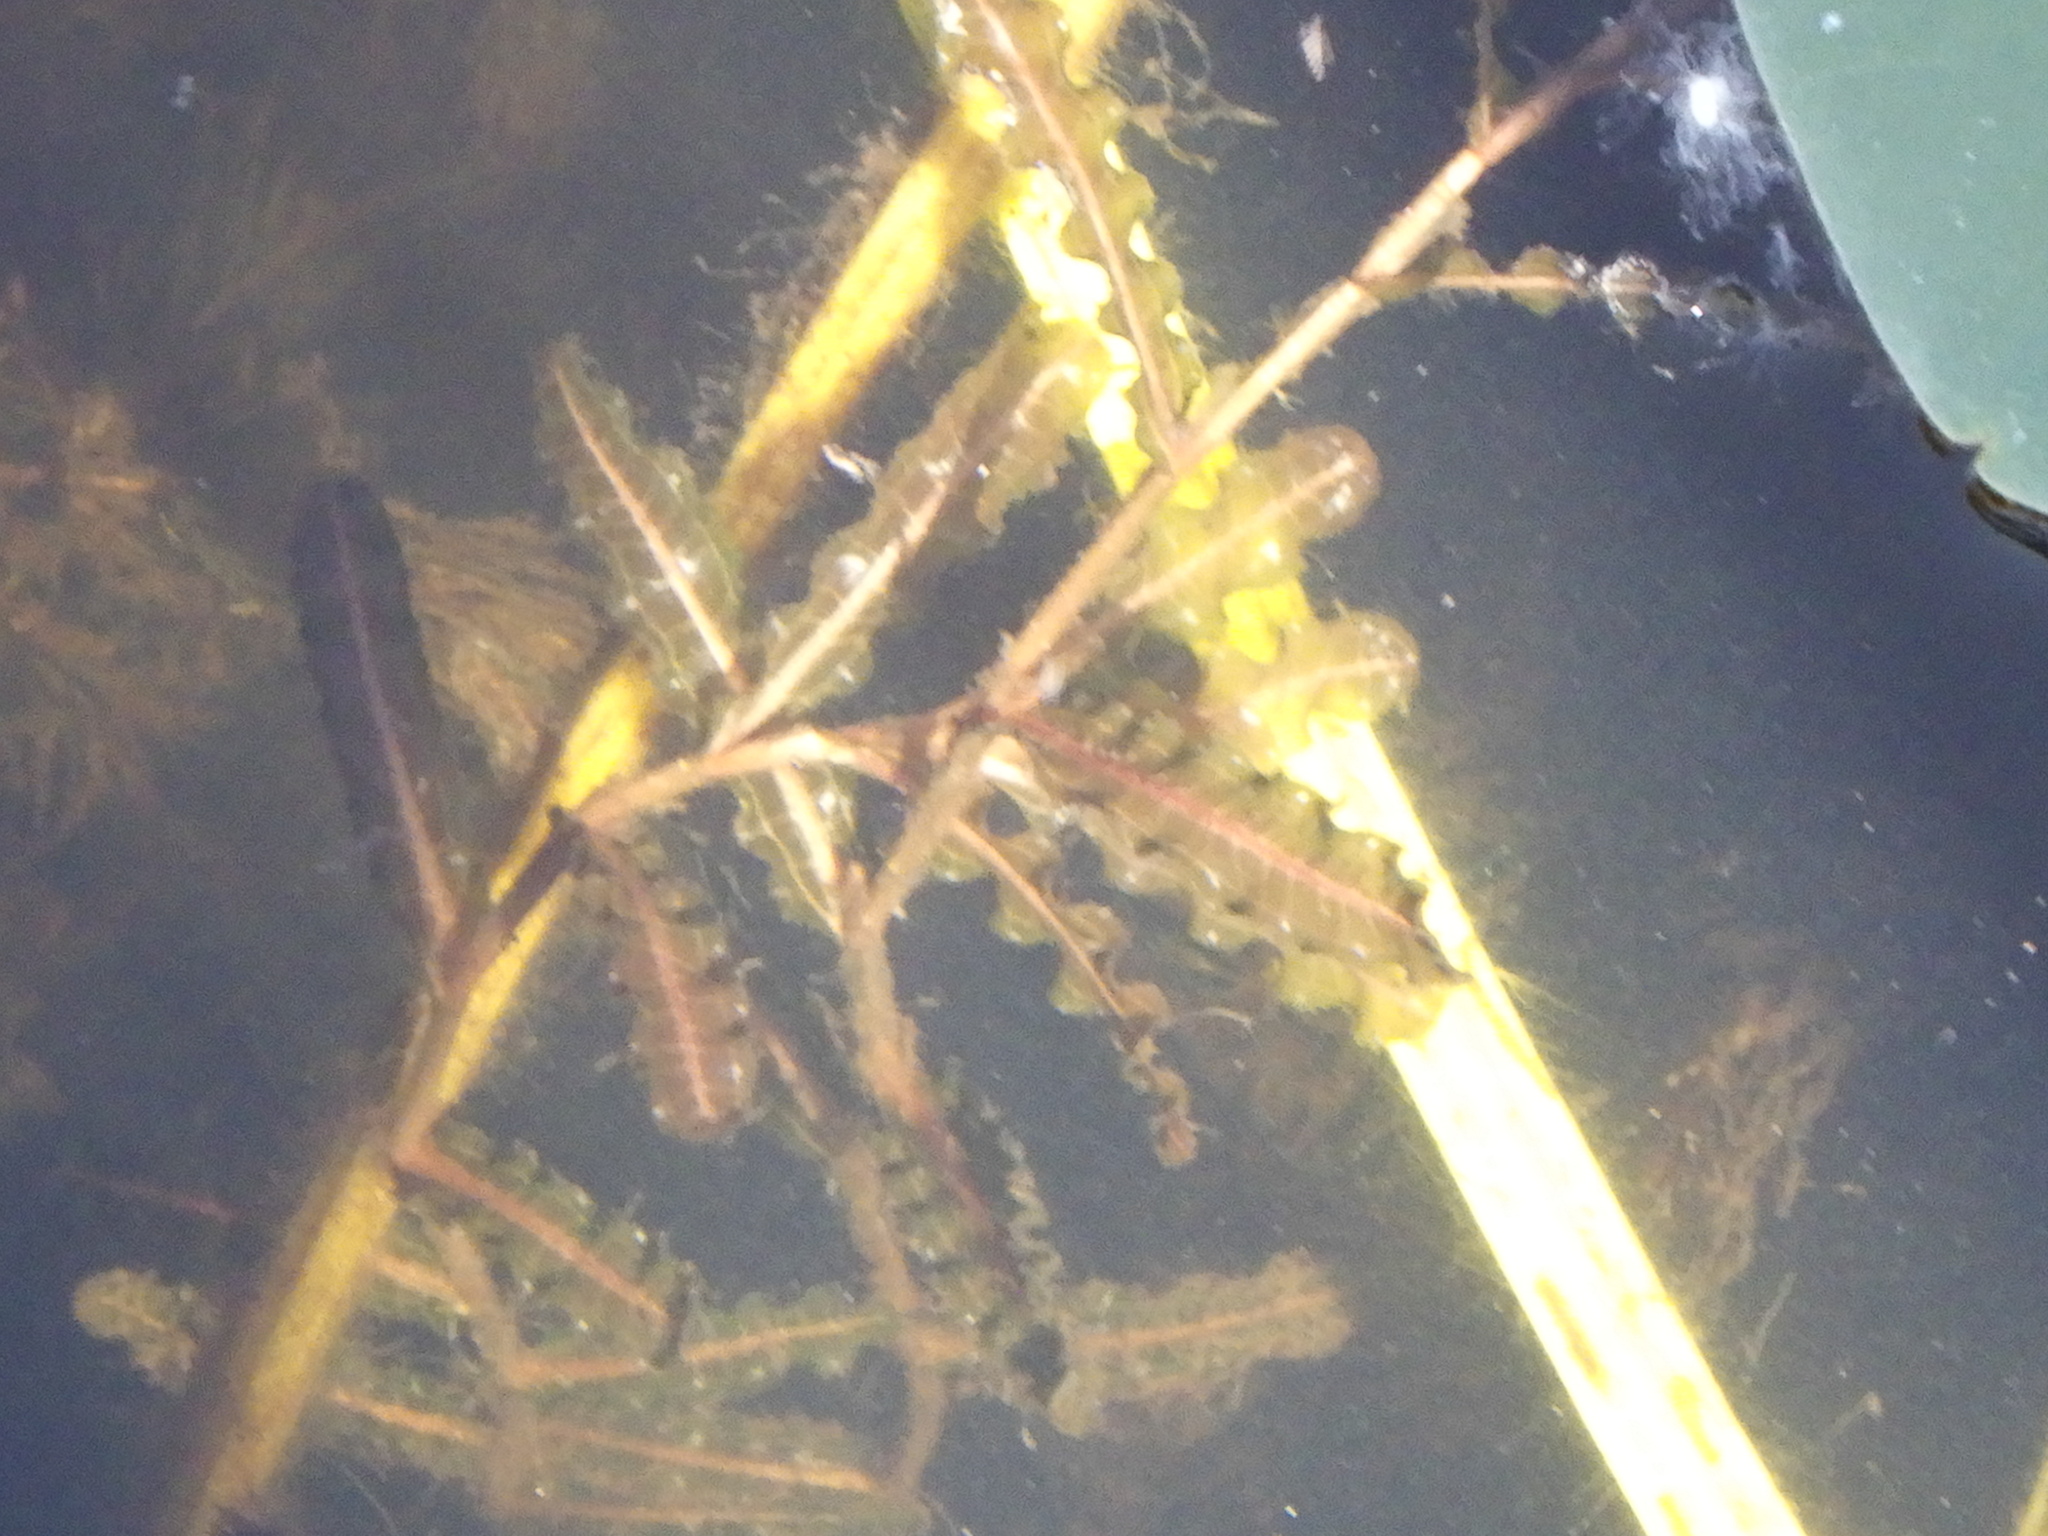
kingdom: Plantae
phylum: Tracheophyta
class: Liliopsida
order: Alismatales
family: Potamogetonaceae
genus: Potamogeton
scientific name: Potamogeton crispus
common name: Curled pondweed
